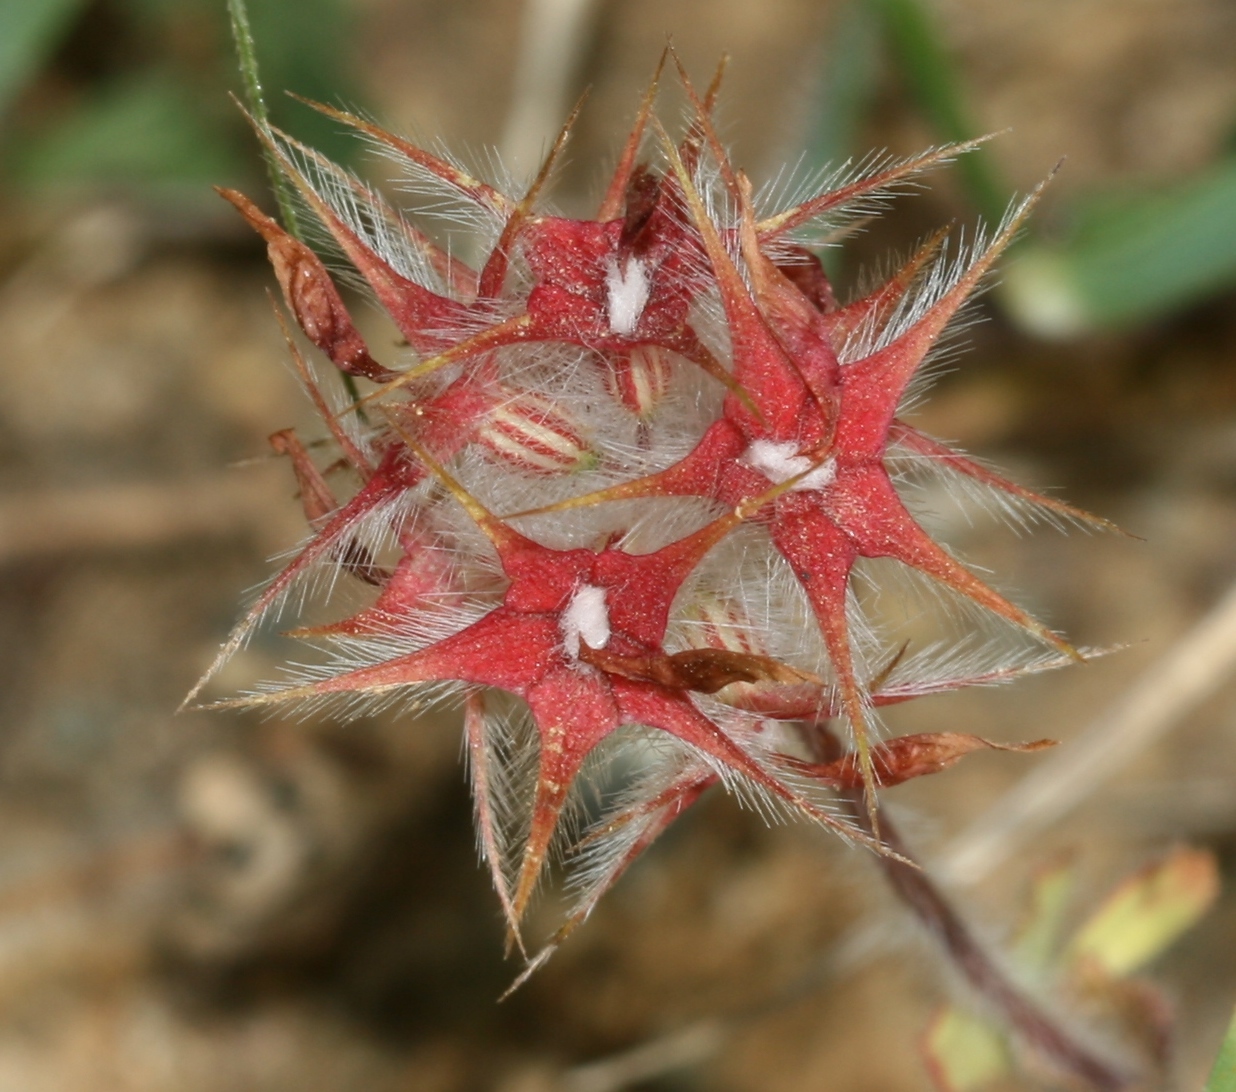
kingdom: Plantae
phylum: Tracheophyta
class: Magnoliopsida
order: Fabales
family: Fabaceae
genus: Trifolium
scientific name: Trifolium stellatum
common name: Starry clover
